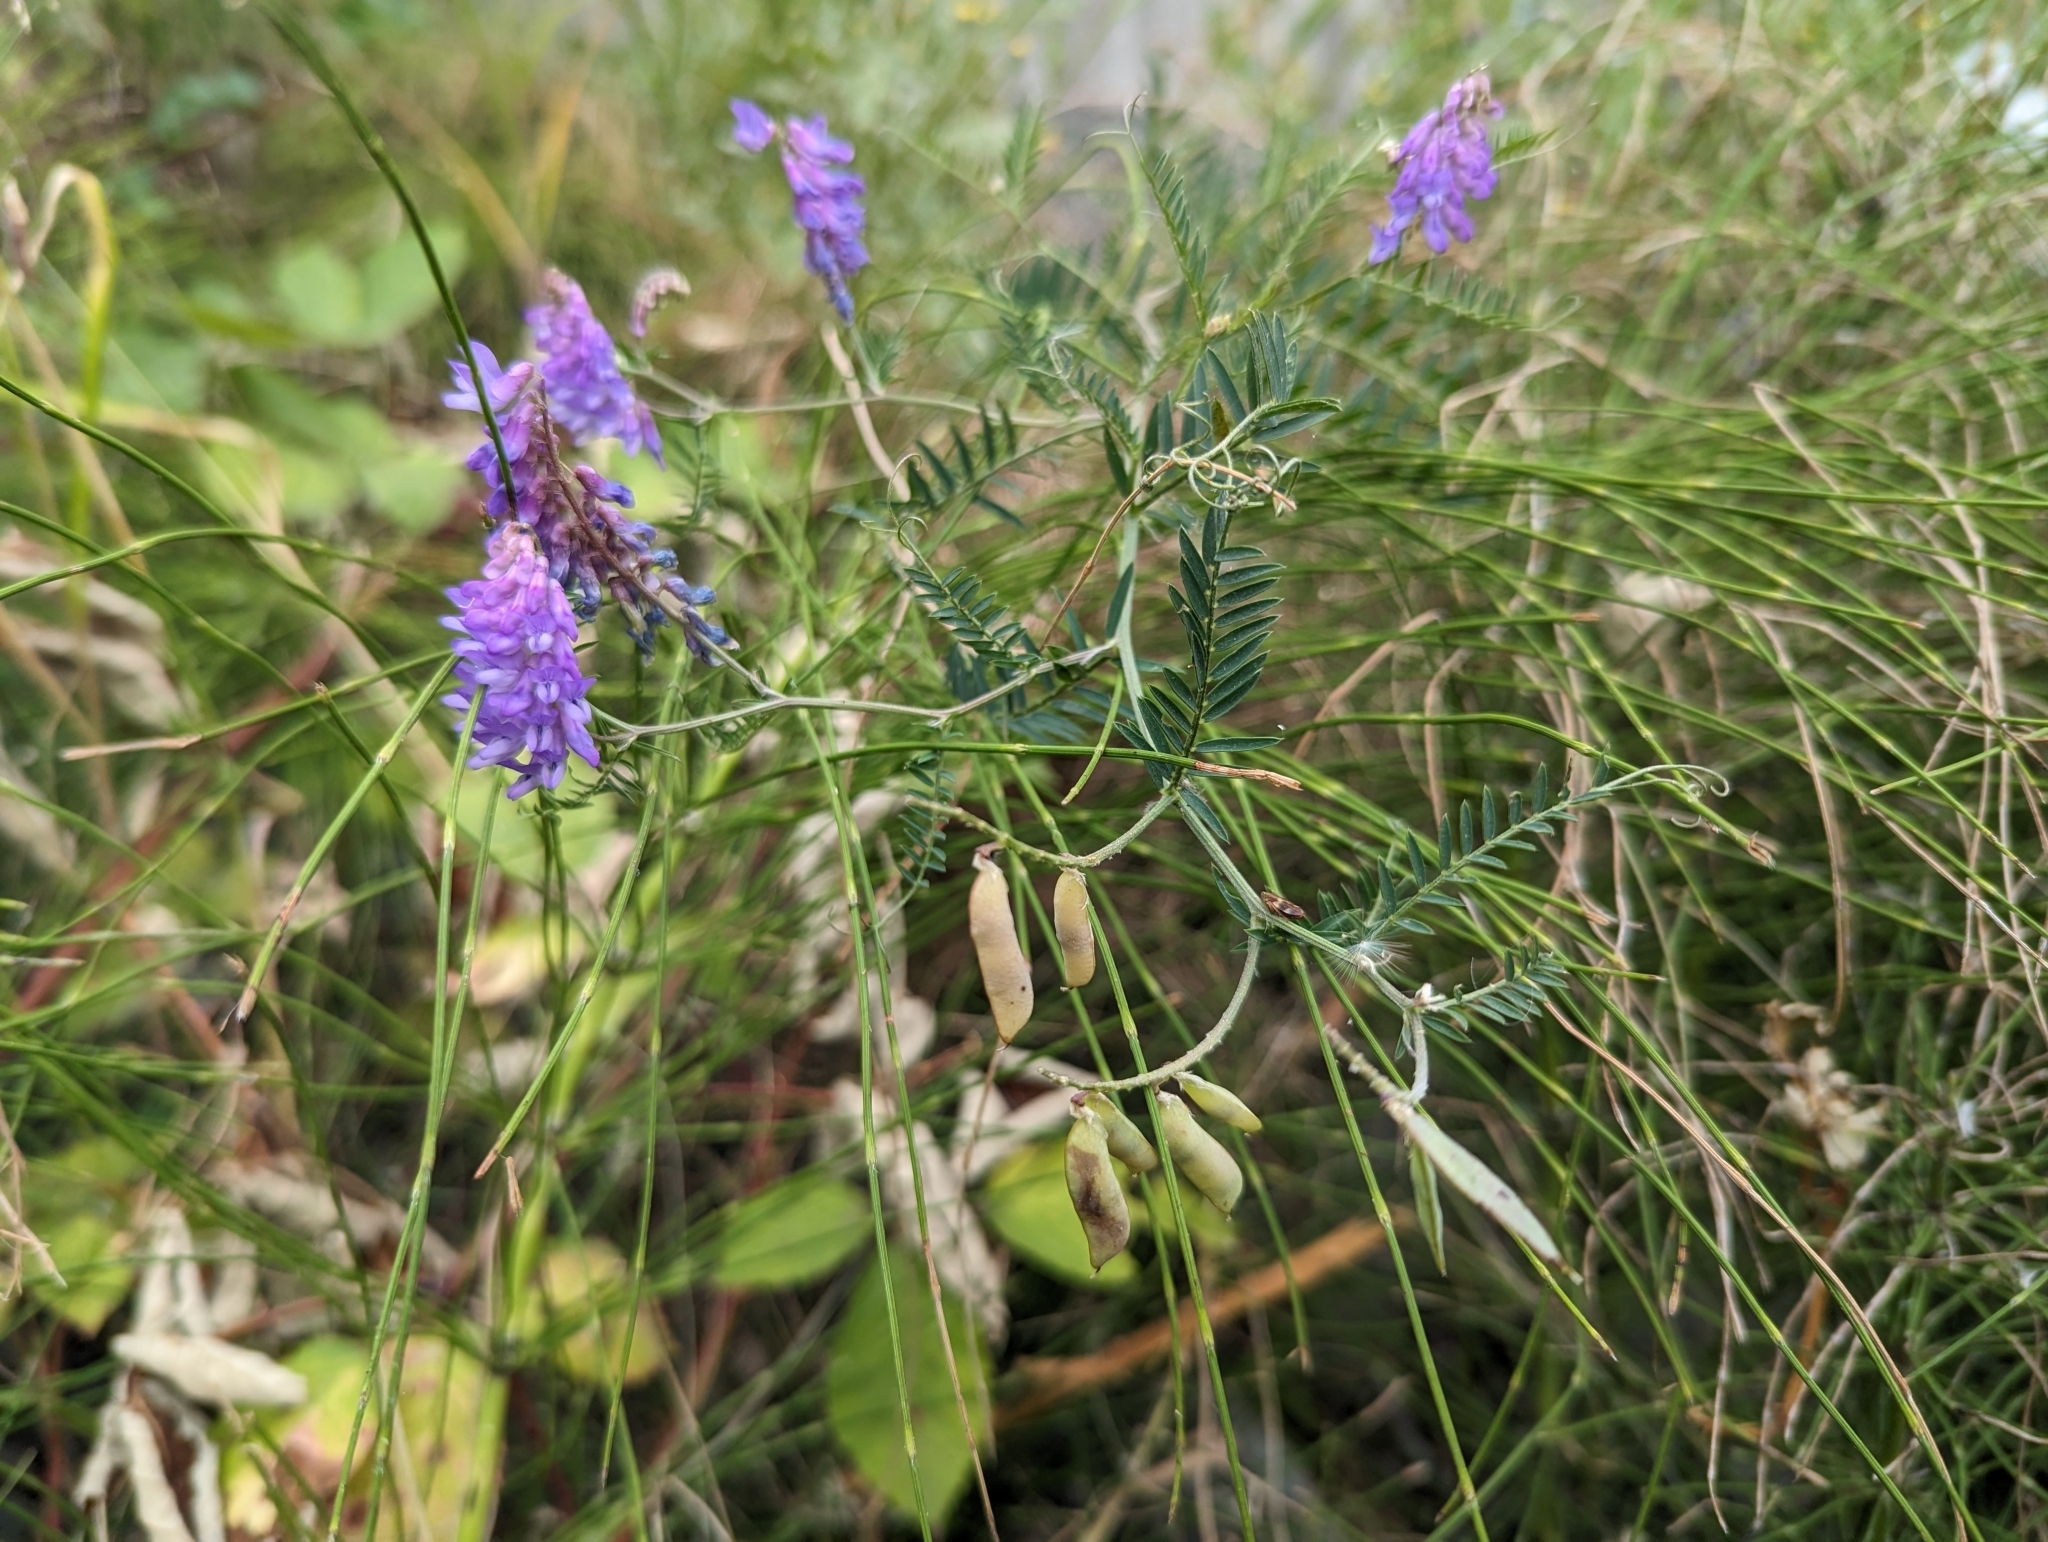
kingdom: Plantae
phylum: Tracheophyta
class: Magnoliopsida
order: Fabales
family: Fabaceae
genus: Vicia
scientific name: Vicia cracca
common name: Bird vetch
